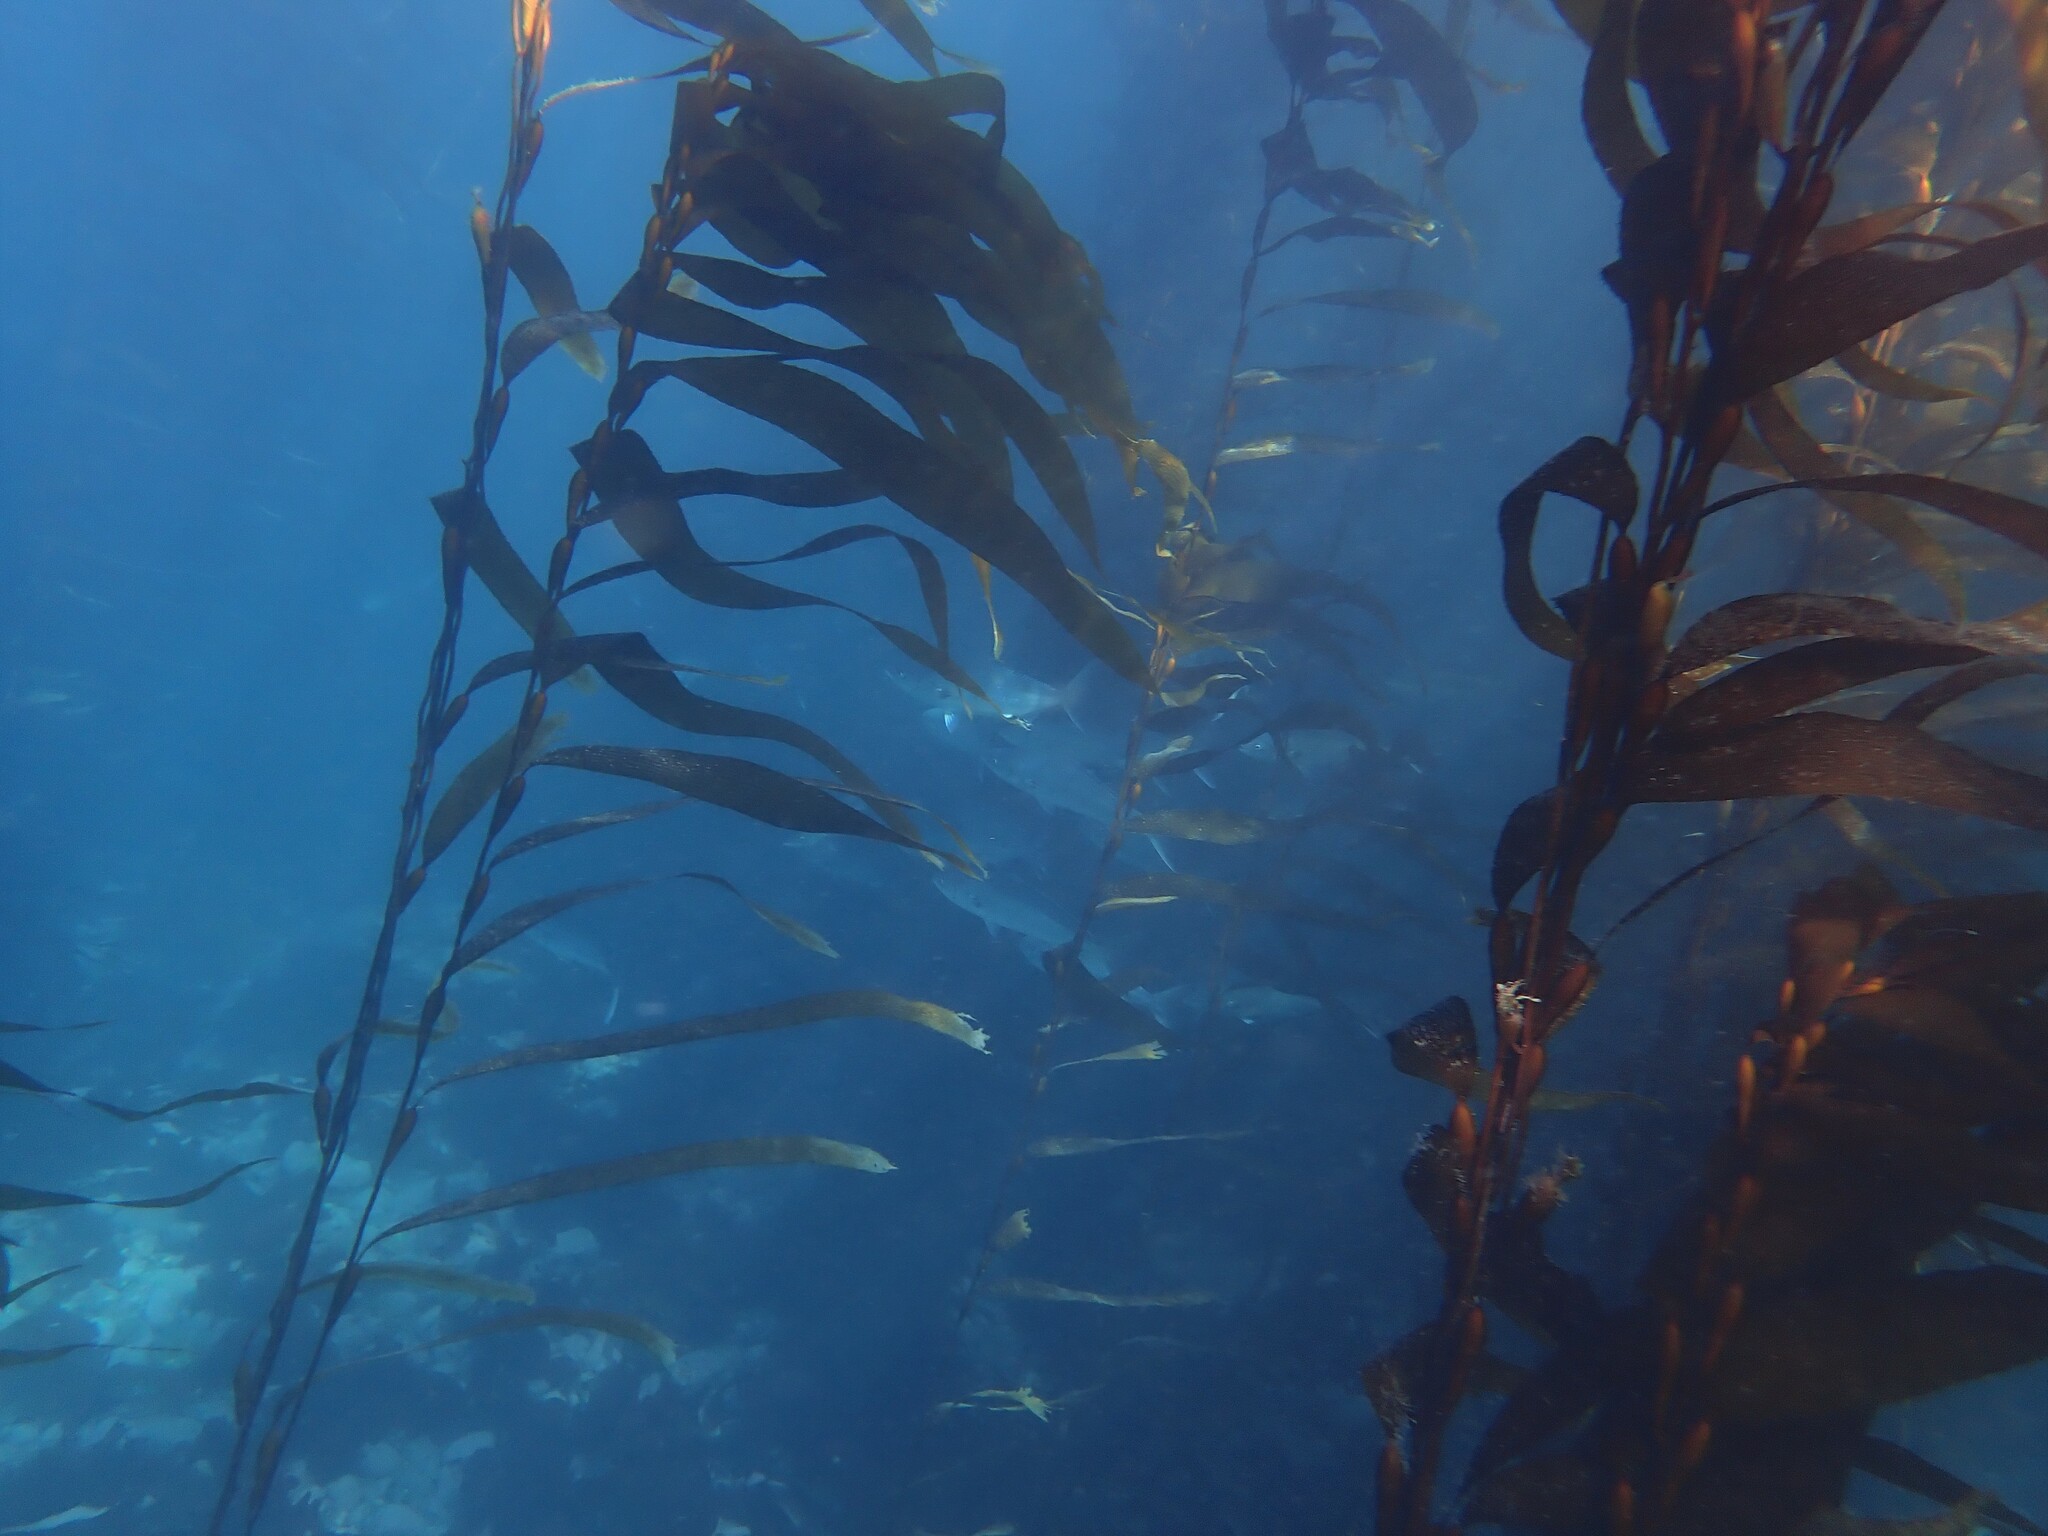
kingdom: Animalia
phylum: Chordata
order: Perciformes
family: Arripidae
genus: Arripis
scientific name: Arripis trutta
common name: Kahawai
